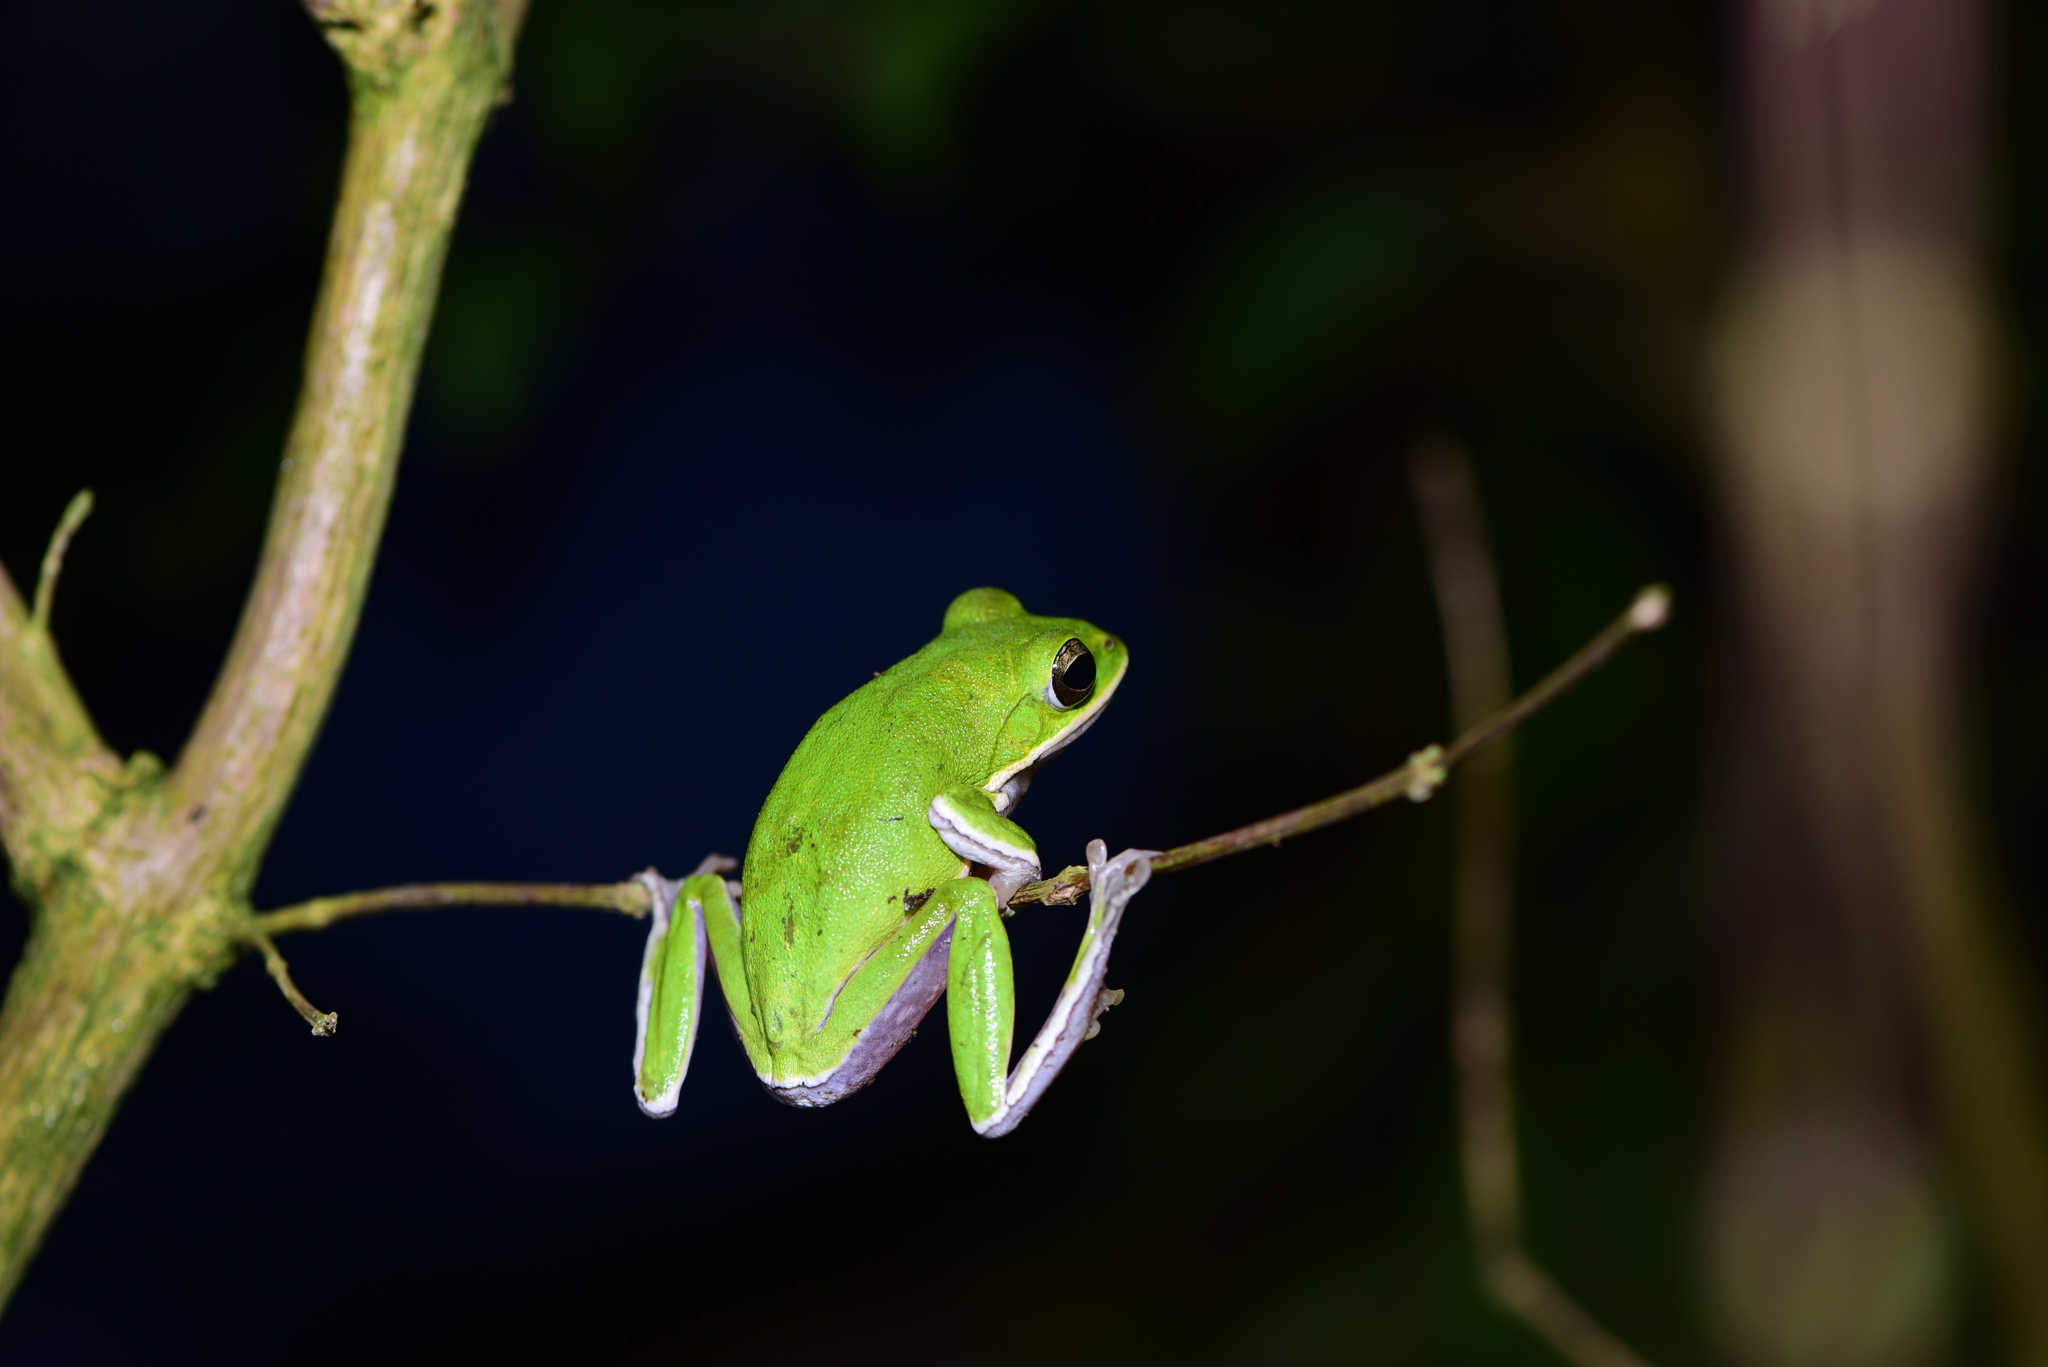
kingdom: Animalia
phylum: Chordata
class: Amphibia
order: Anura
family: Rhacophoridae
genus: Zhangixalus
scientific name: Zhangixalus arvalis
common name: Farmland green treefrog
